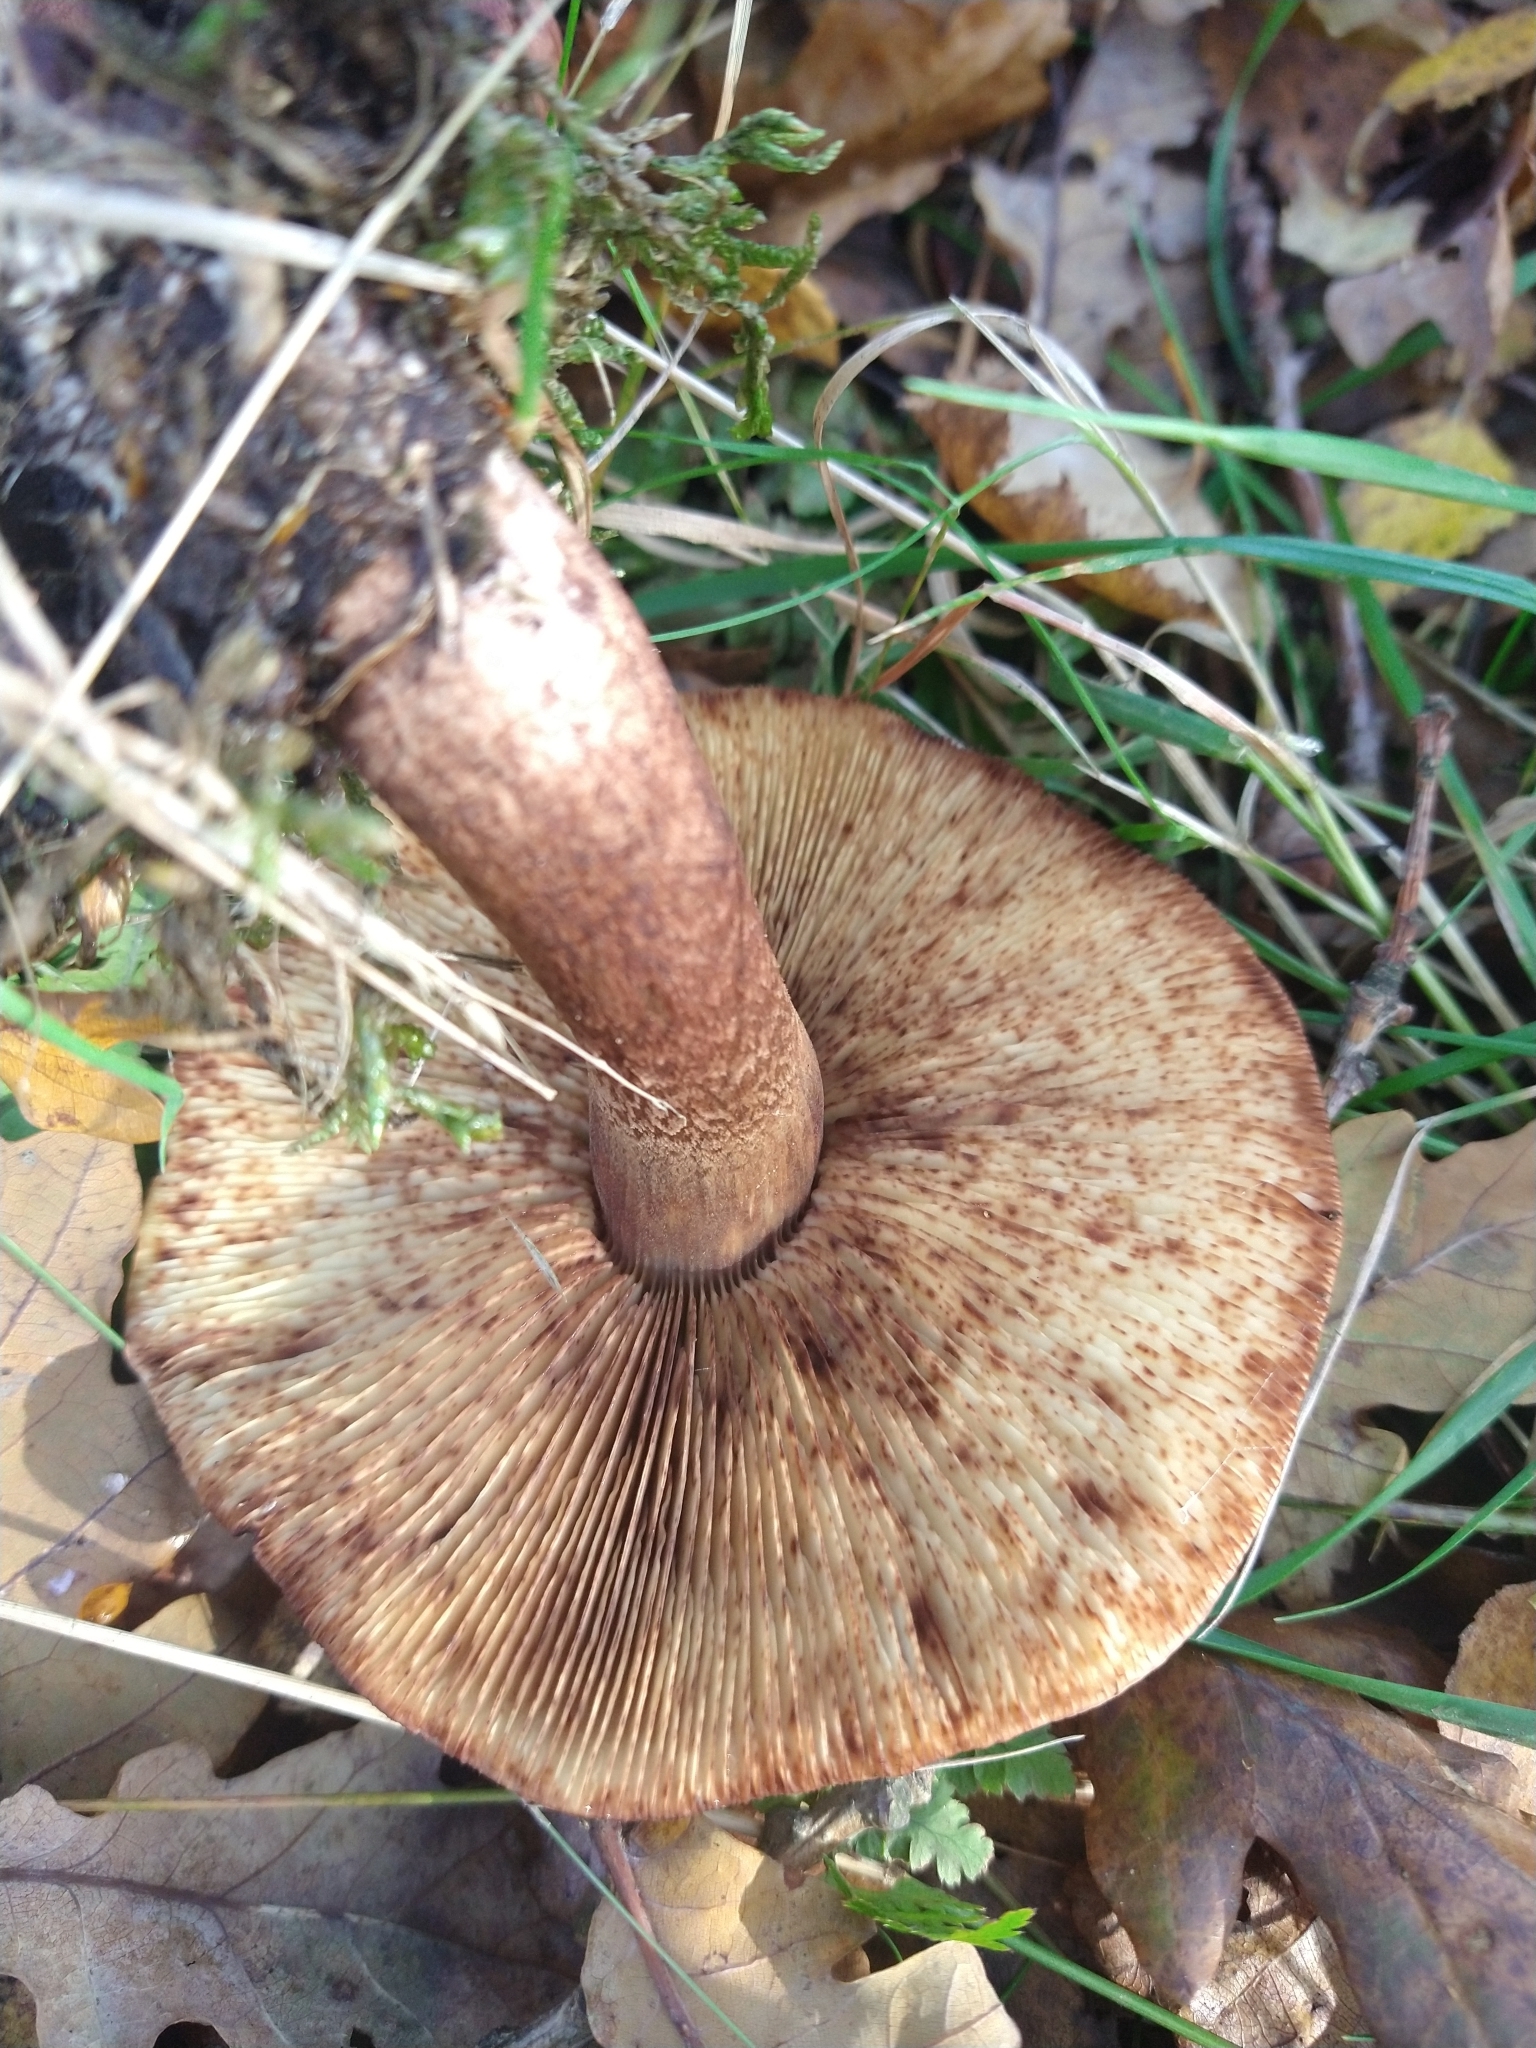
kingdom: Fungi
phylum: Basidiomycota
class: Agaricomycetes
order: Agaricales
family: Tricholomataceae
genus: Tricholoma
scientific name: Tricholoma fulvum
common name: Birch knight
